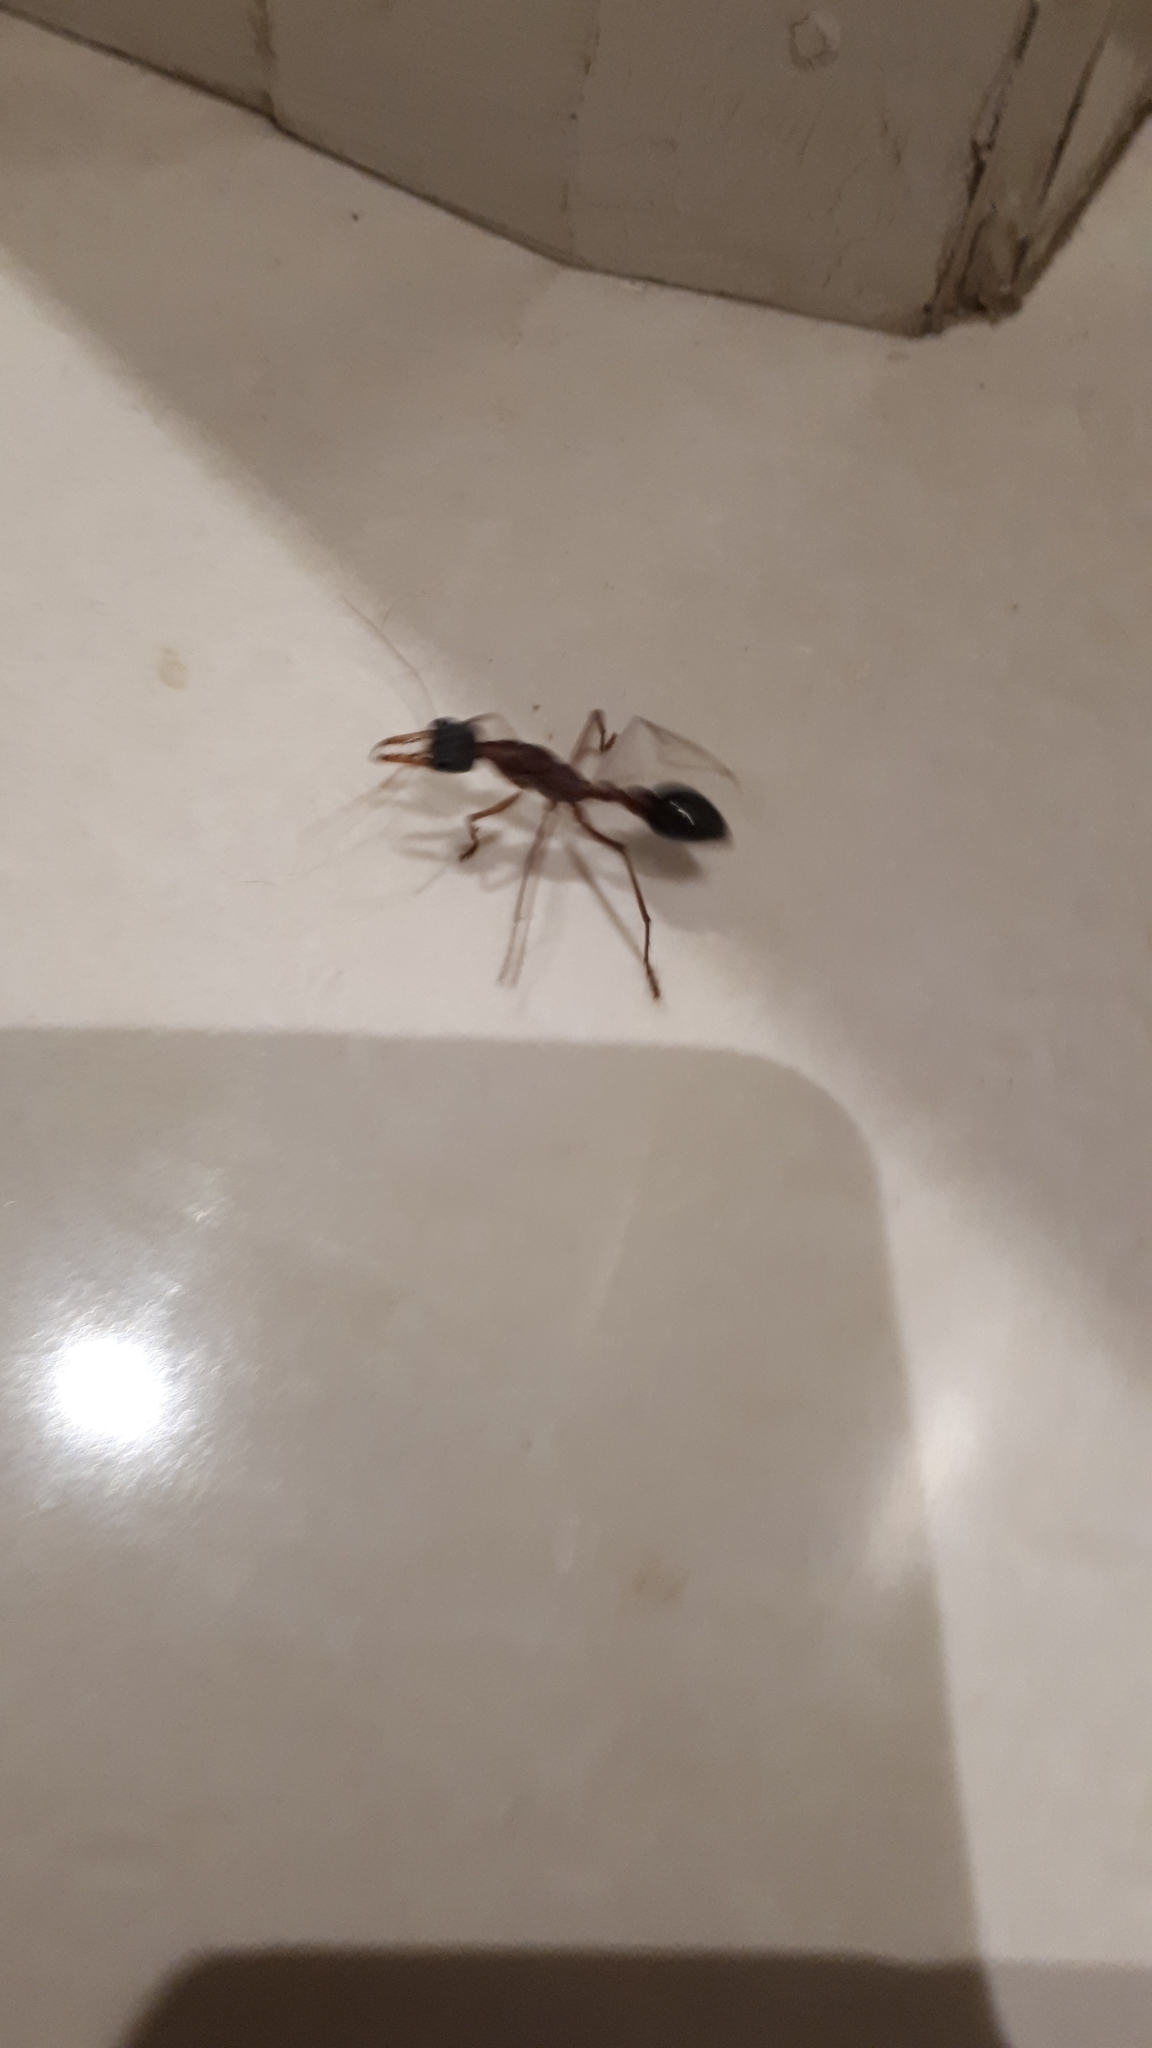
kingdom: Animalia
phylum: Arthropoda
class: Insecta
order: Hymenoptera
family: Formicidae
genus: Myrmecia
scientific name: Myrmecia nigriceps
